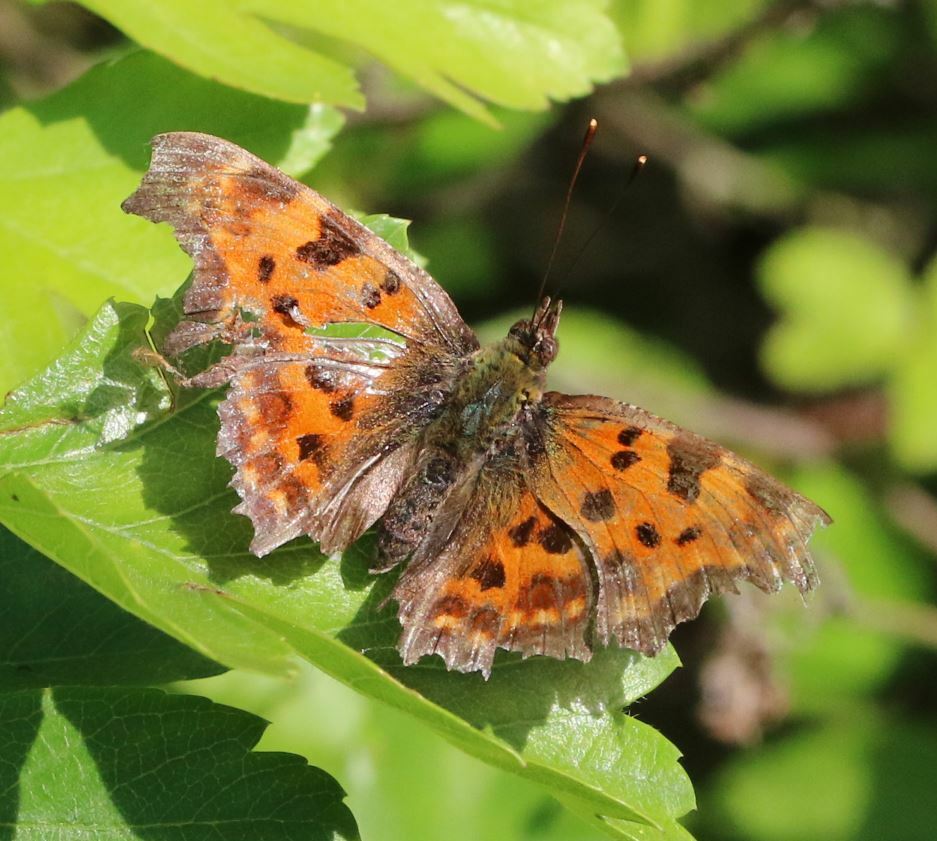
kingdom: Animalia
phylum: Arthropoda
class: Insecta
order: Lepidoptera
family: Nymphalidae
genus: Polygonia
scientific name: Polygonia c-album
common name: Comma
